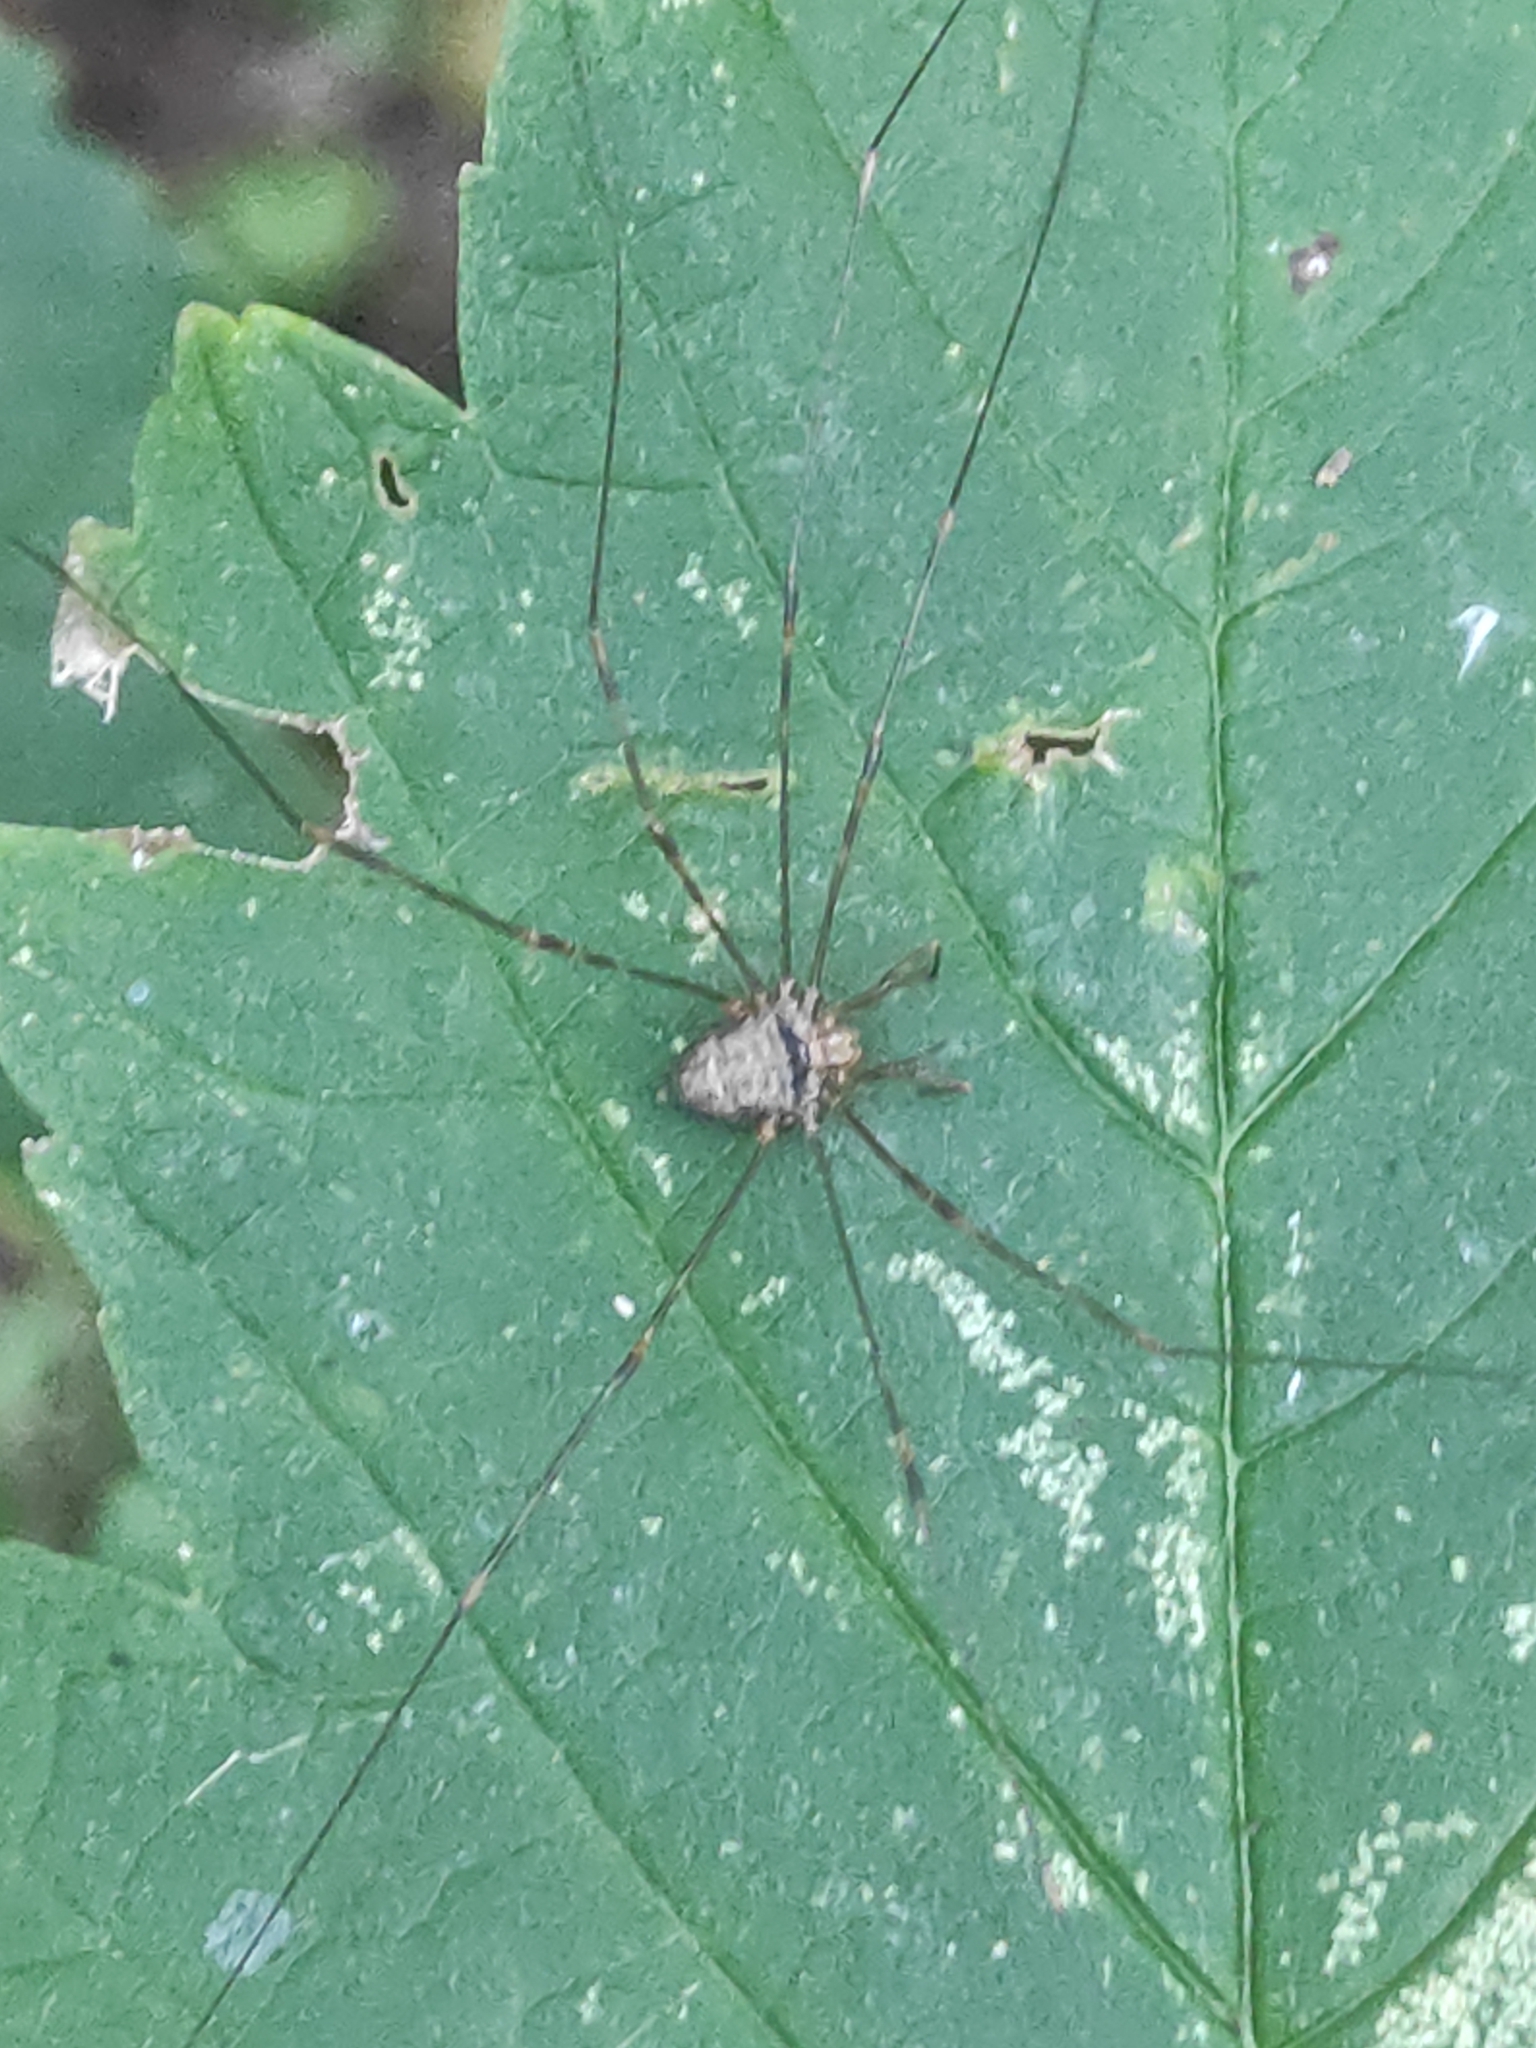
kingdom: Animalia
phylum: Arthropoda
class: Arachnida
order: Opiliones
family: Phalangiidae
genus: Dicranopalpus
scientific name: Dicranopalpus ramosus
